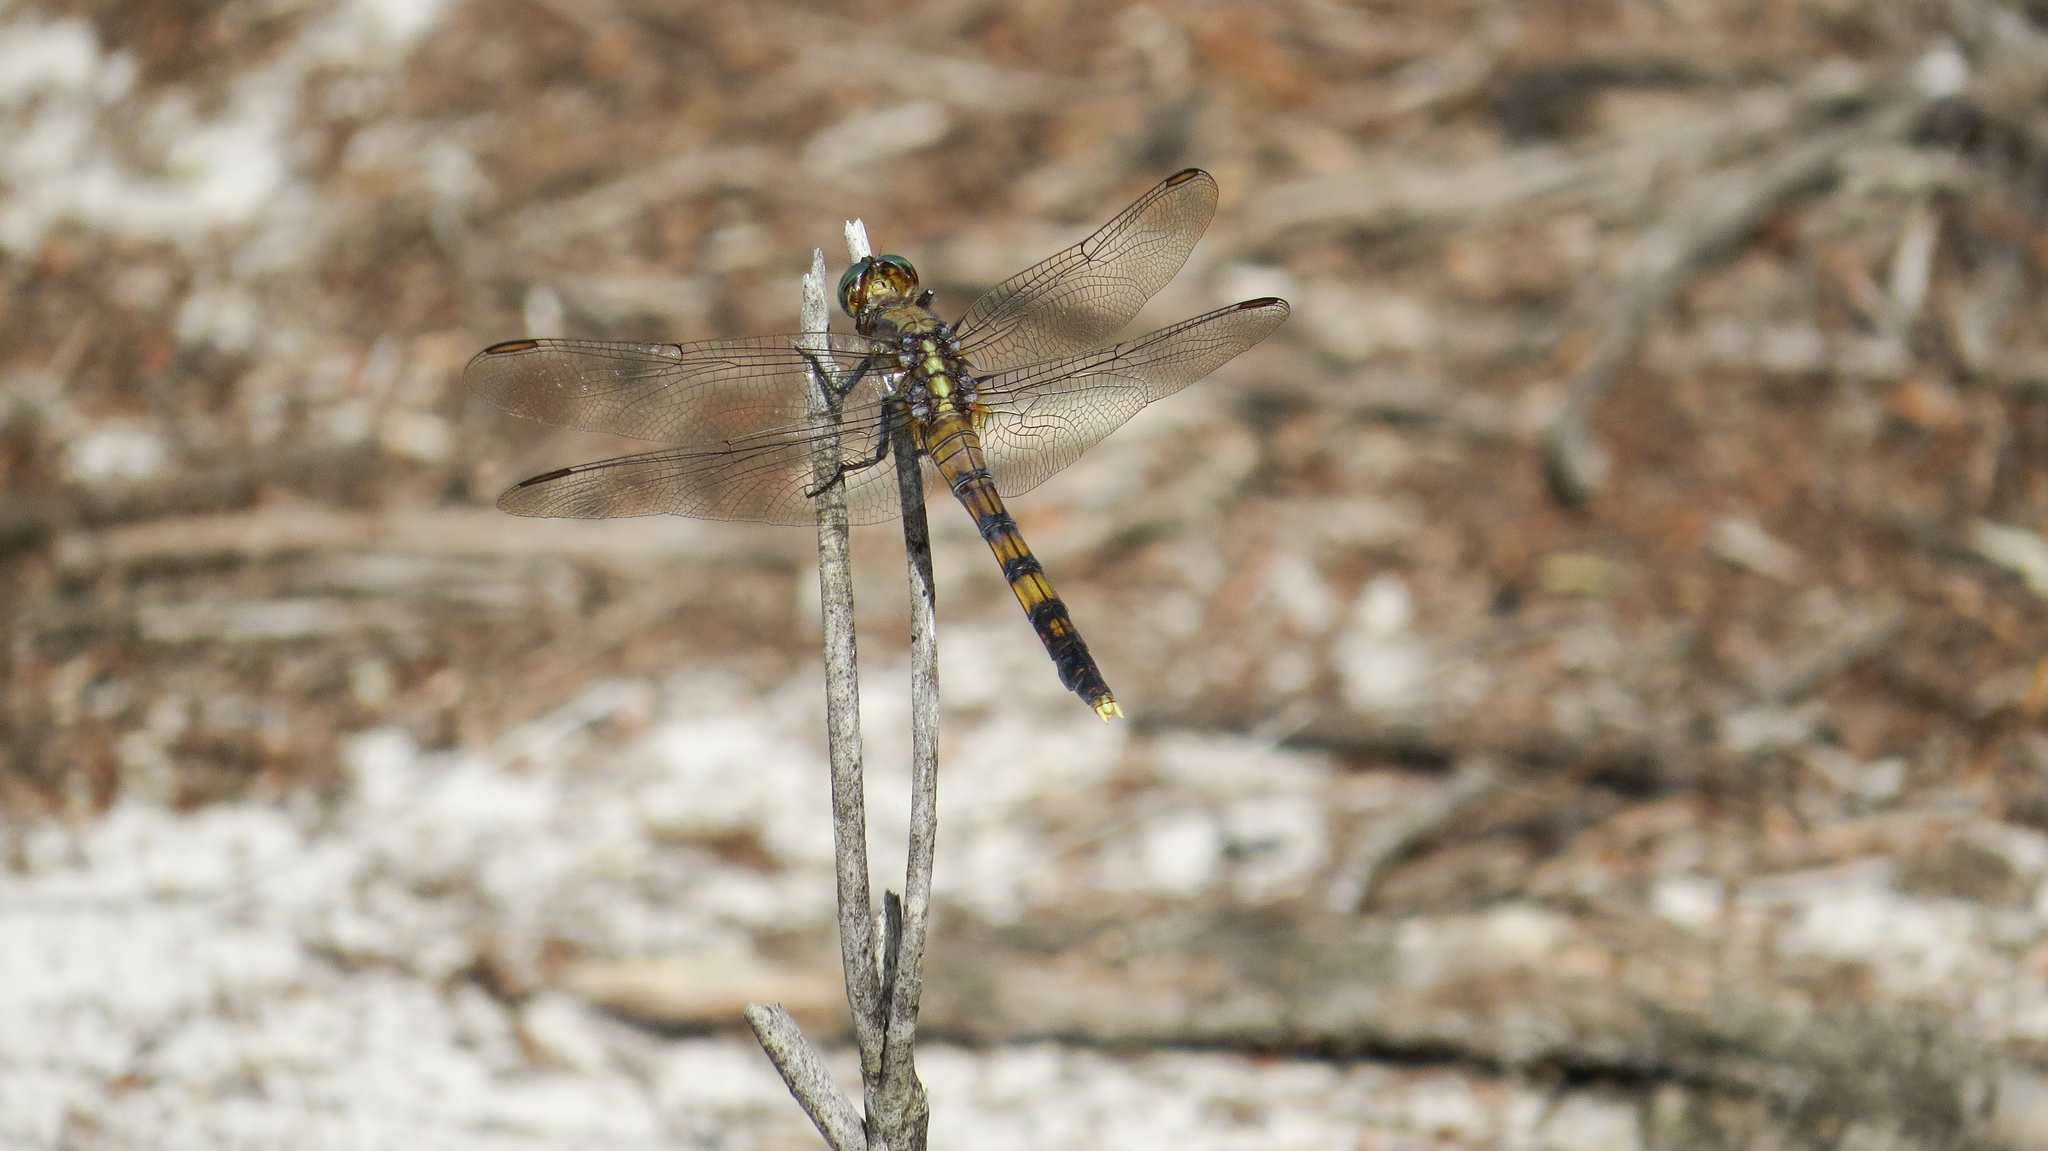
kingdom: Animalia
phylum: Arthropoda
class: Insecta
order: Odonata
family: Libellulidae
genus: Orthetrum
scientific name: Orthetrum boumiera
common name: Brownwater skimmer
